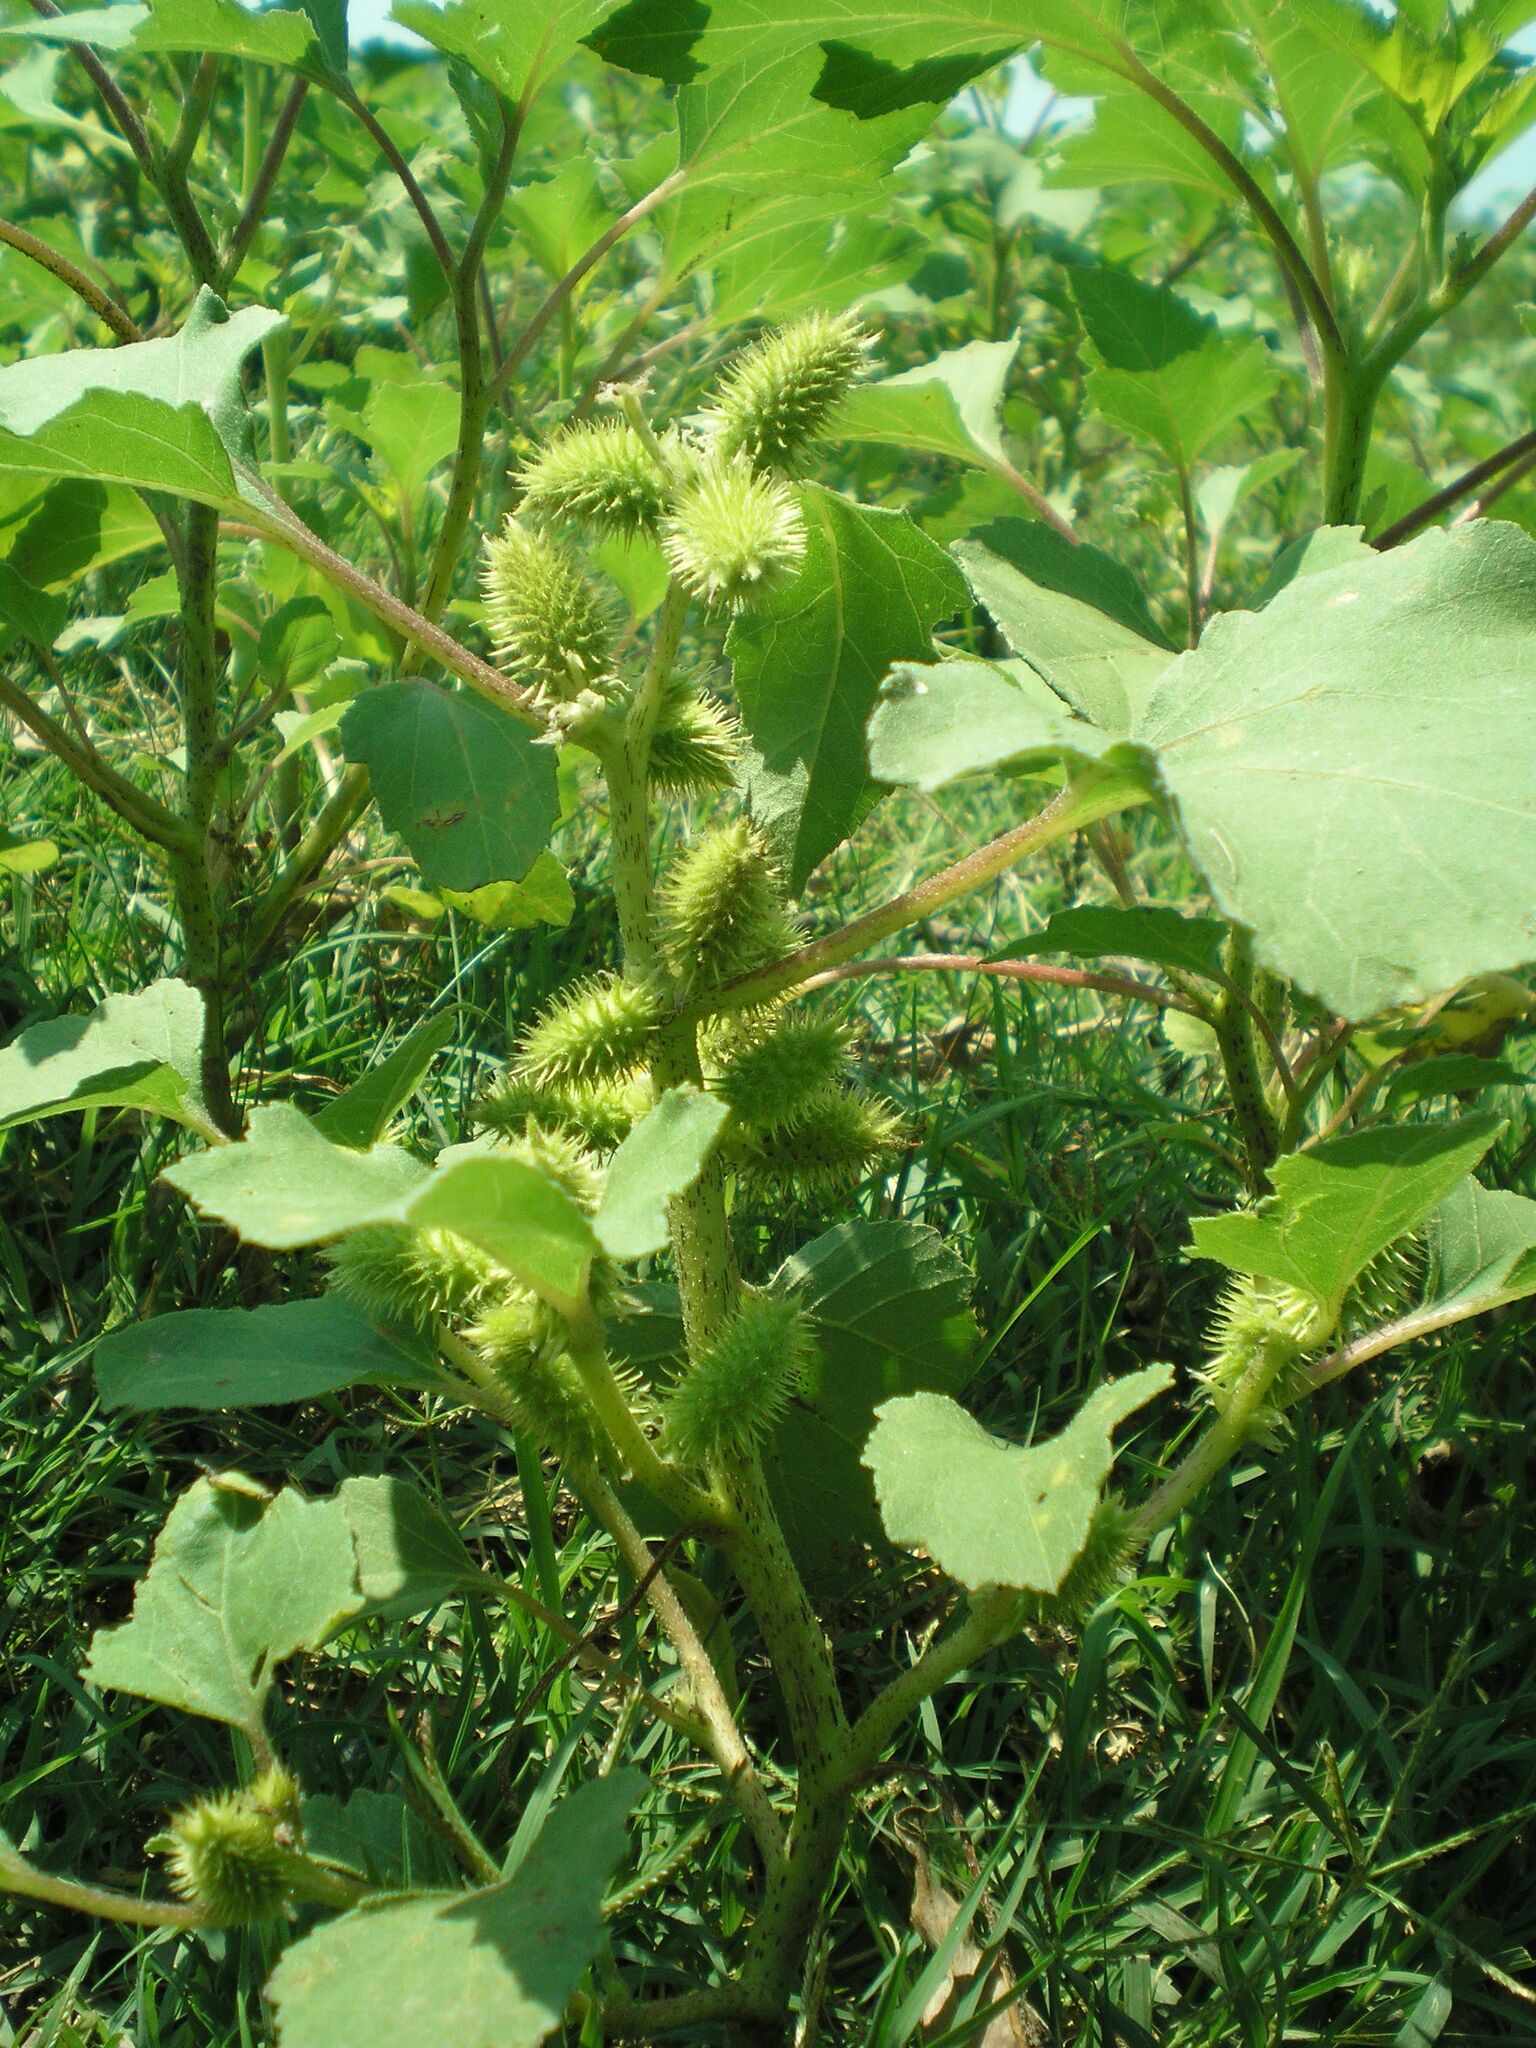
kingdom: Plantae
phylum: Tracheophyta
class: Magnoliopsida
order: Asterales
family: Asteraceae
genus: Xanthium
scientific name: Xanthium orientale
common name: Californian burr
